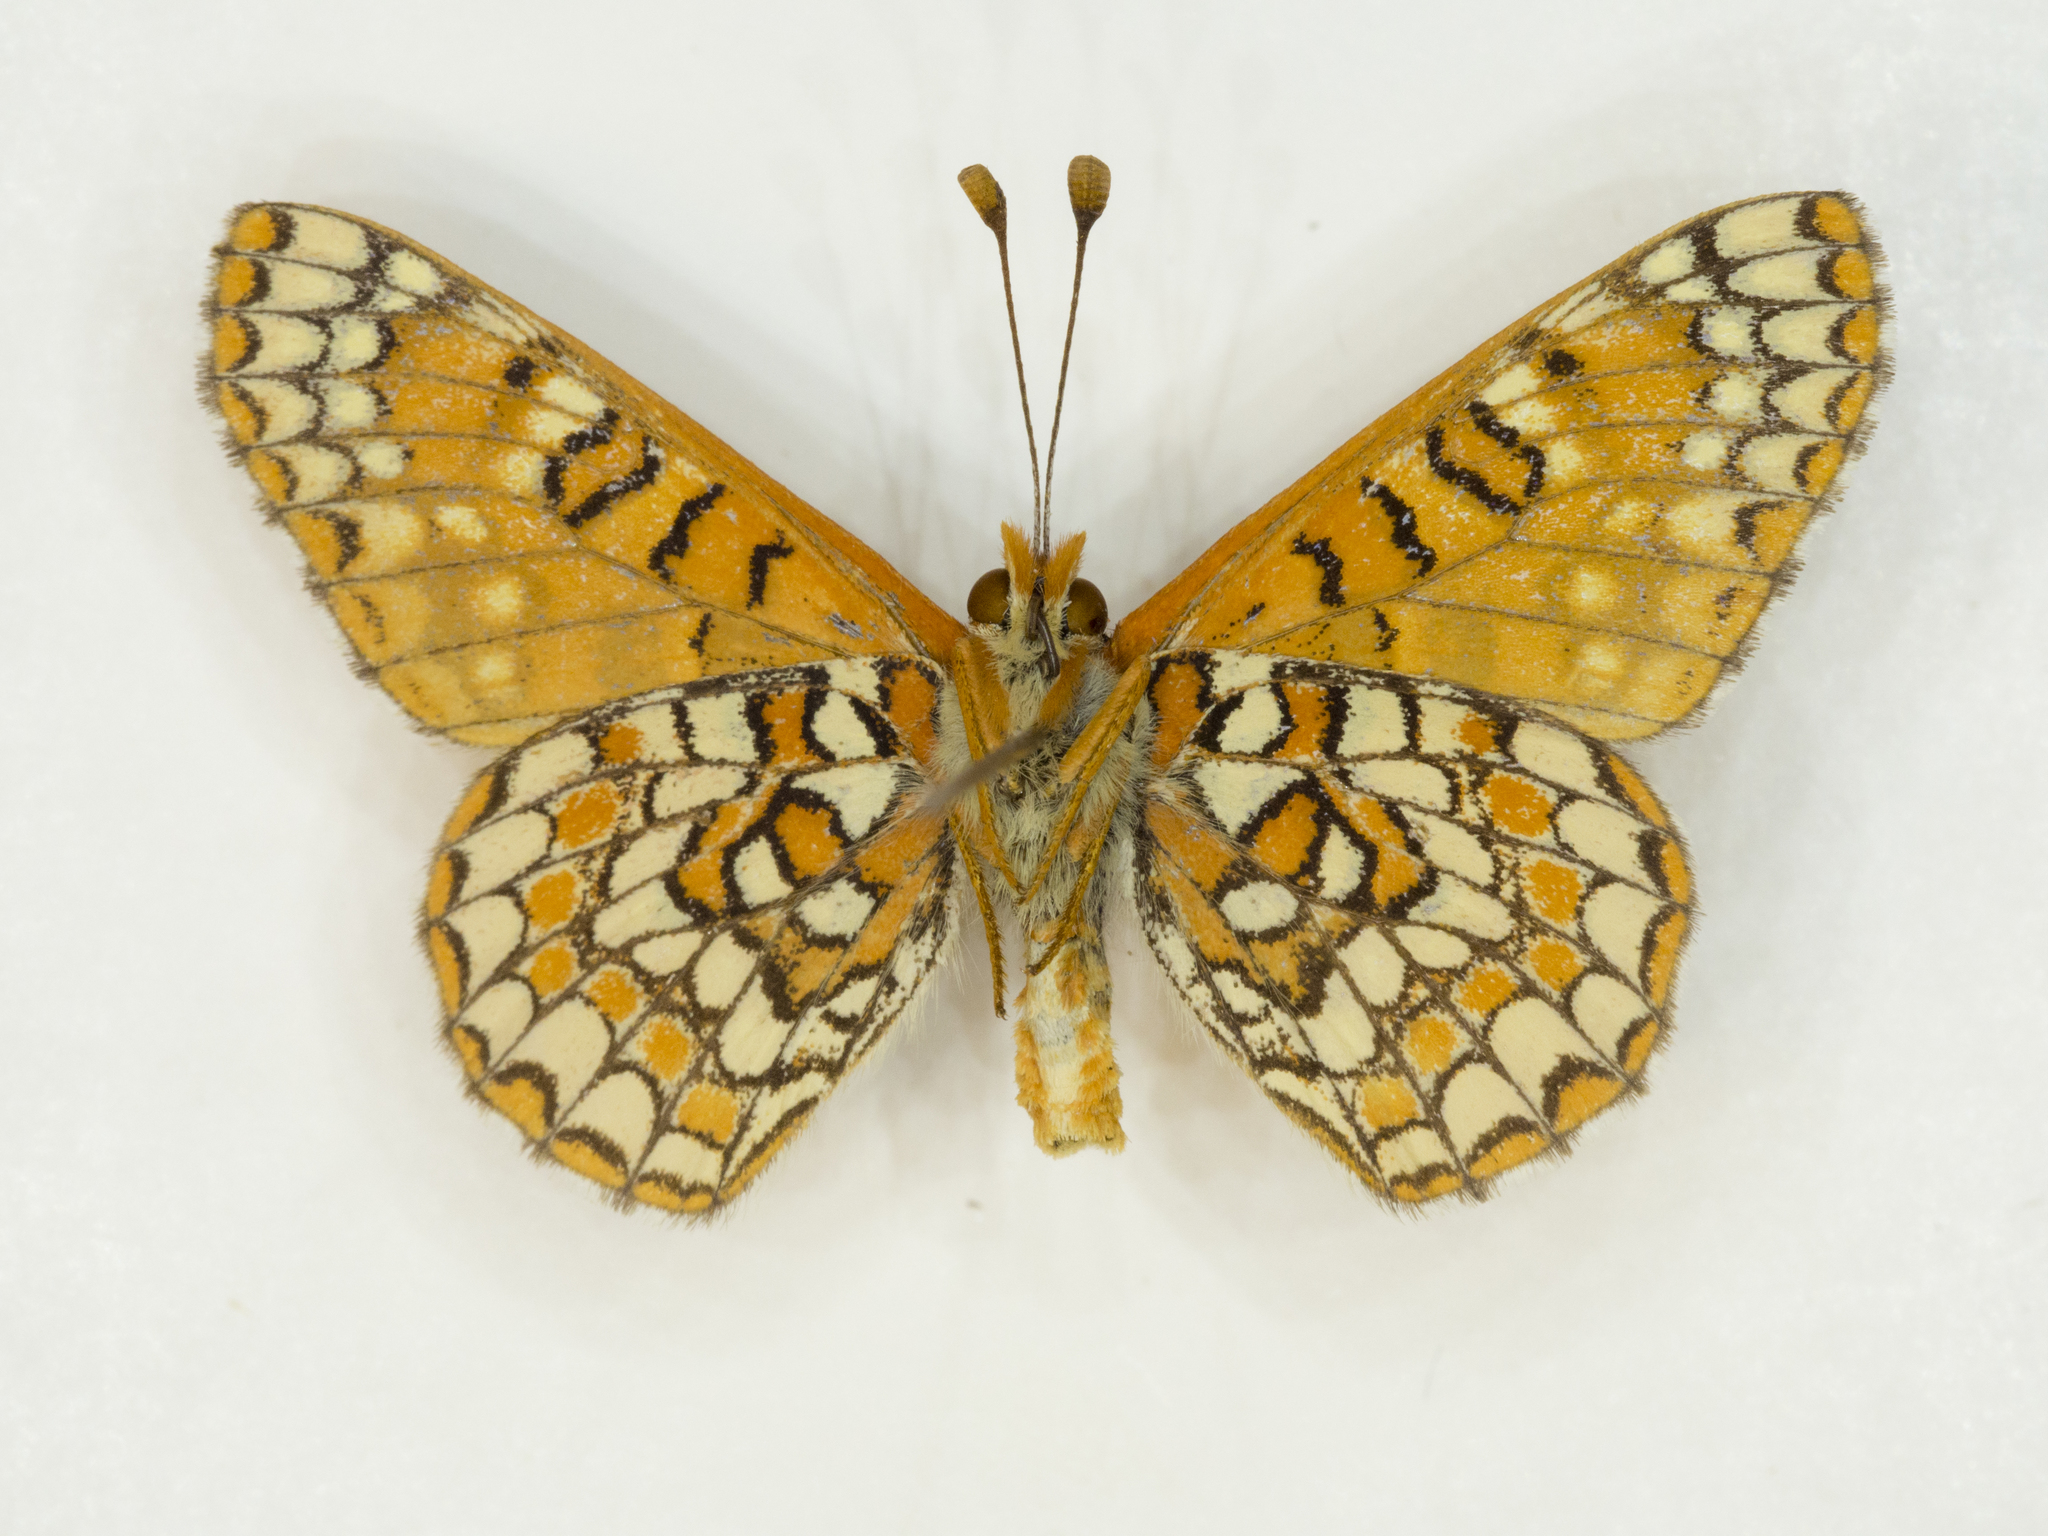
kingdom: Animalia
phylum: Arthropoda
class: Insecta
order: Lepidoptera
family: Nymphalidae
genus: Occidryas
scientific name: Occidryas anicia
